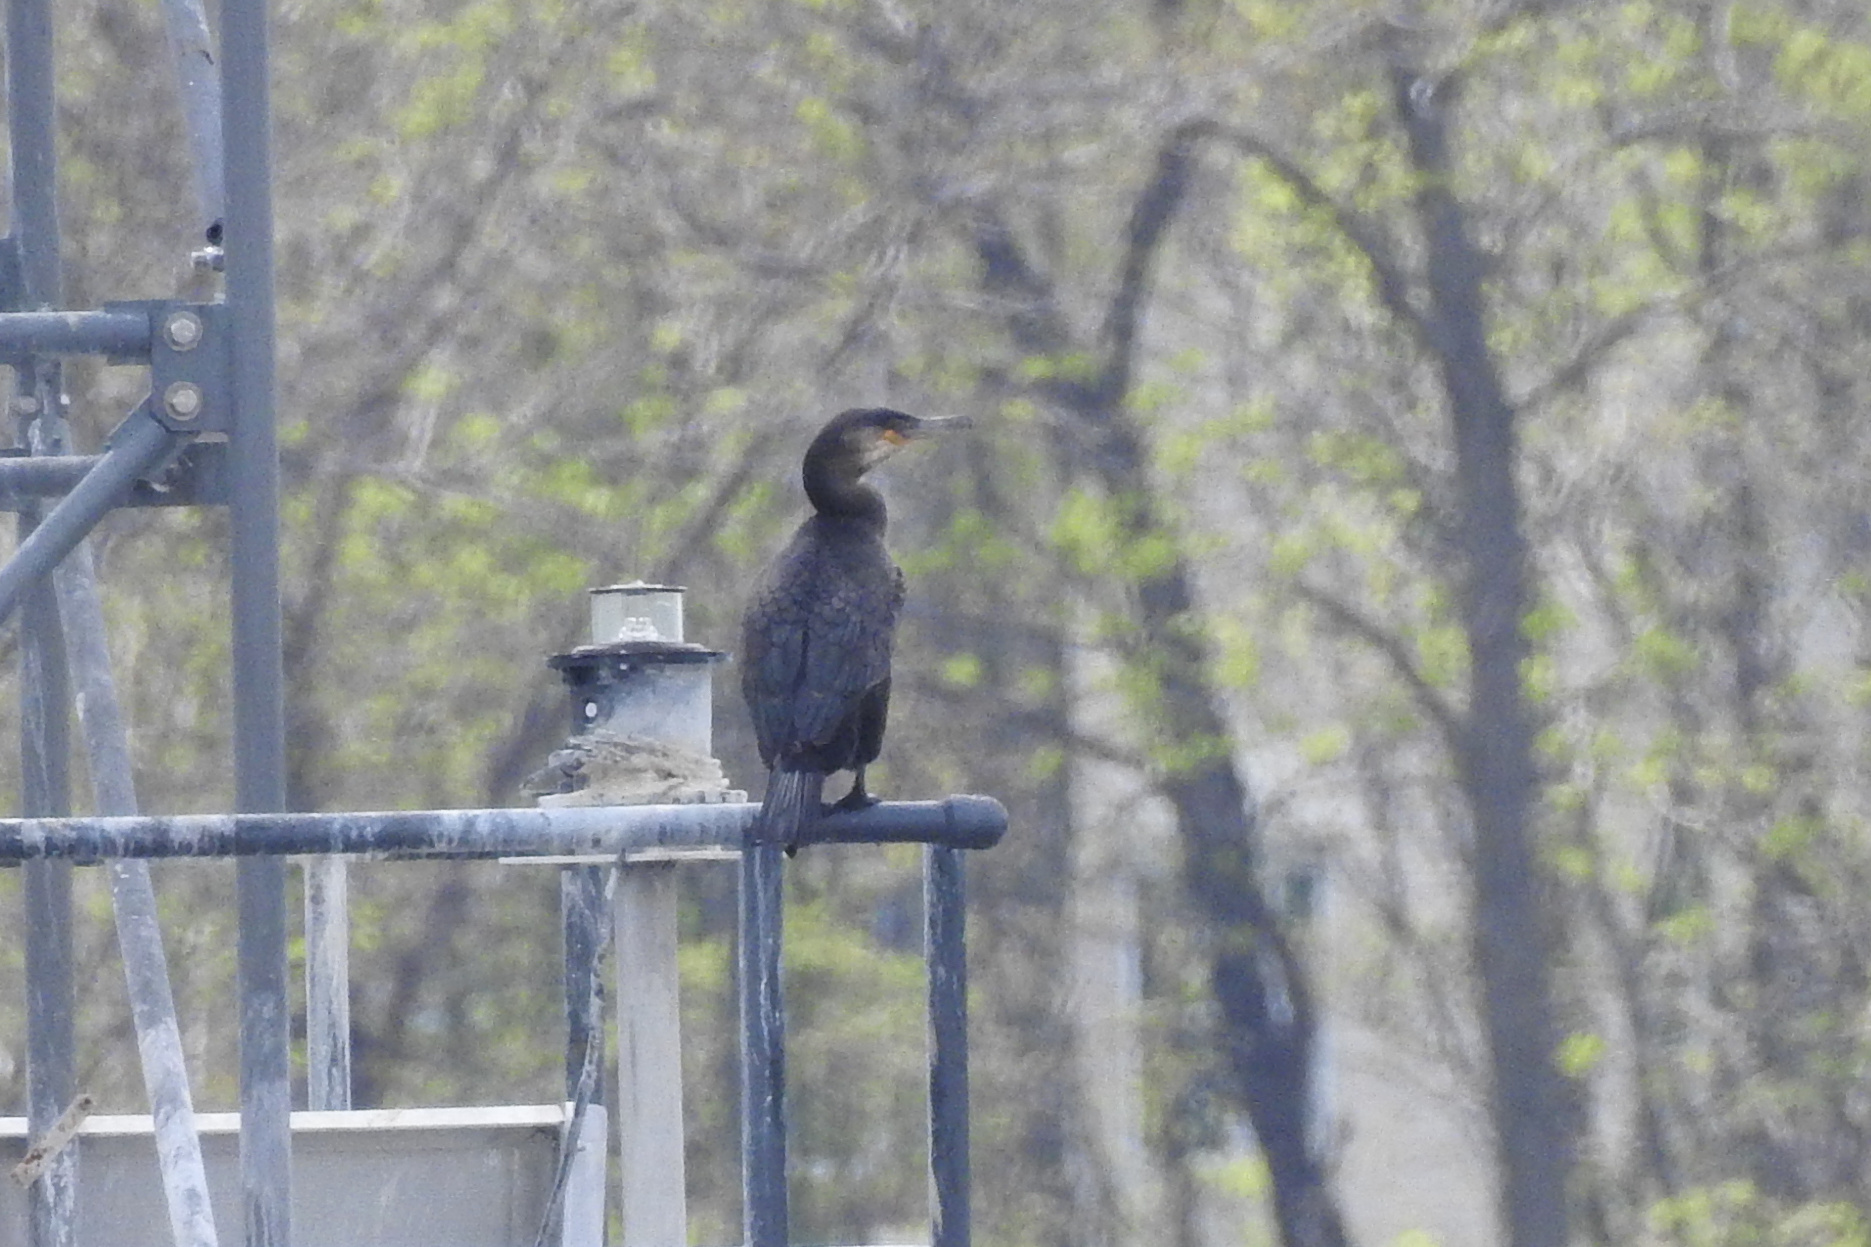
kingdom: Animalia
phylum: Chordata
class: Aves
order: Suliformes
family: Phalacrocoracidae
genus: Phalacrocorax
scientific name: Phalacrocorax carbo
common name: Great cormorant
